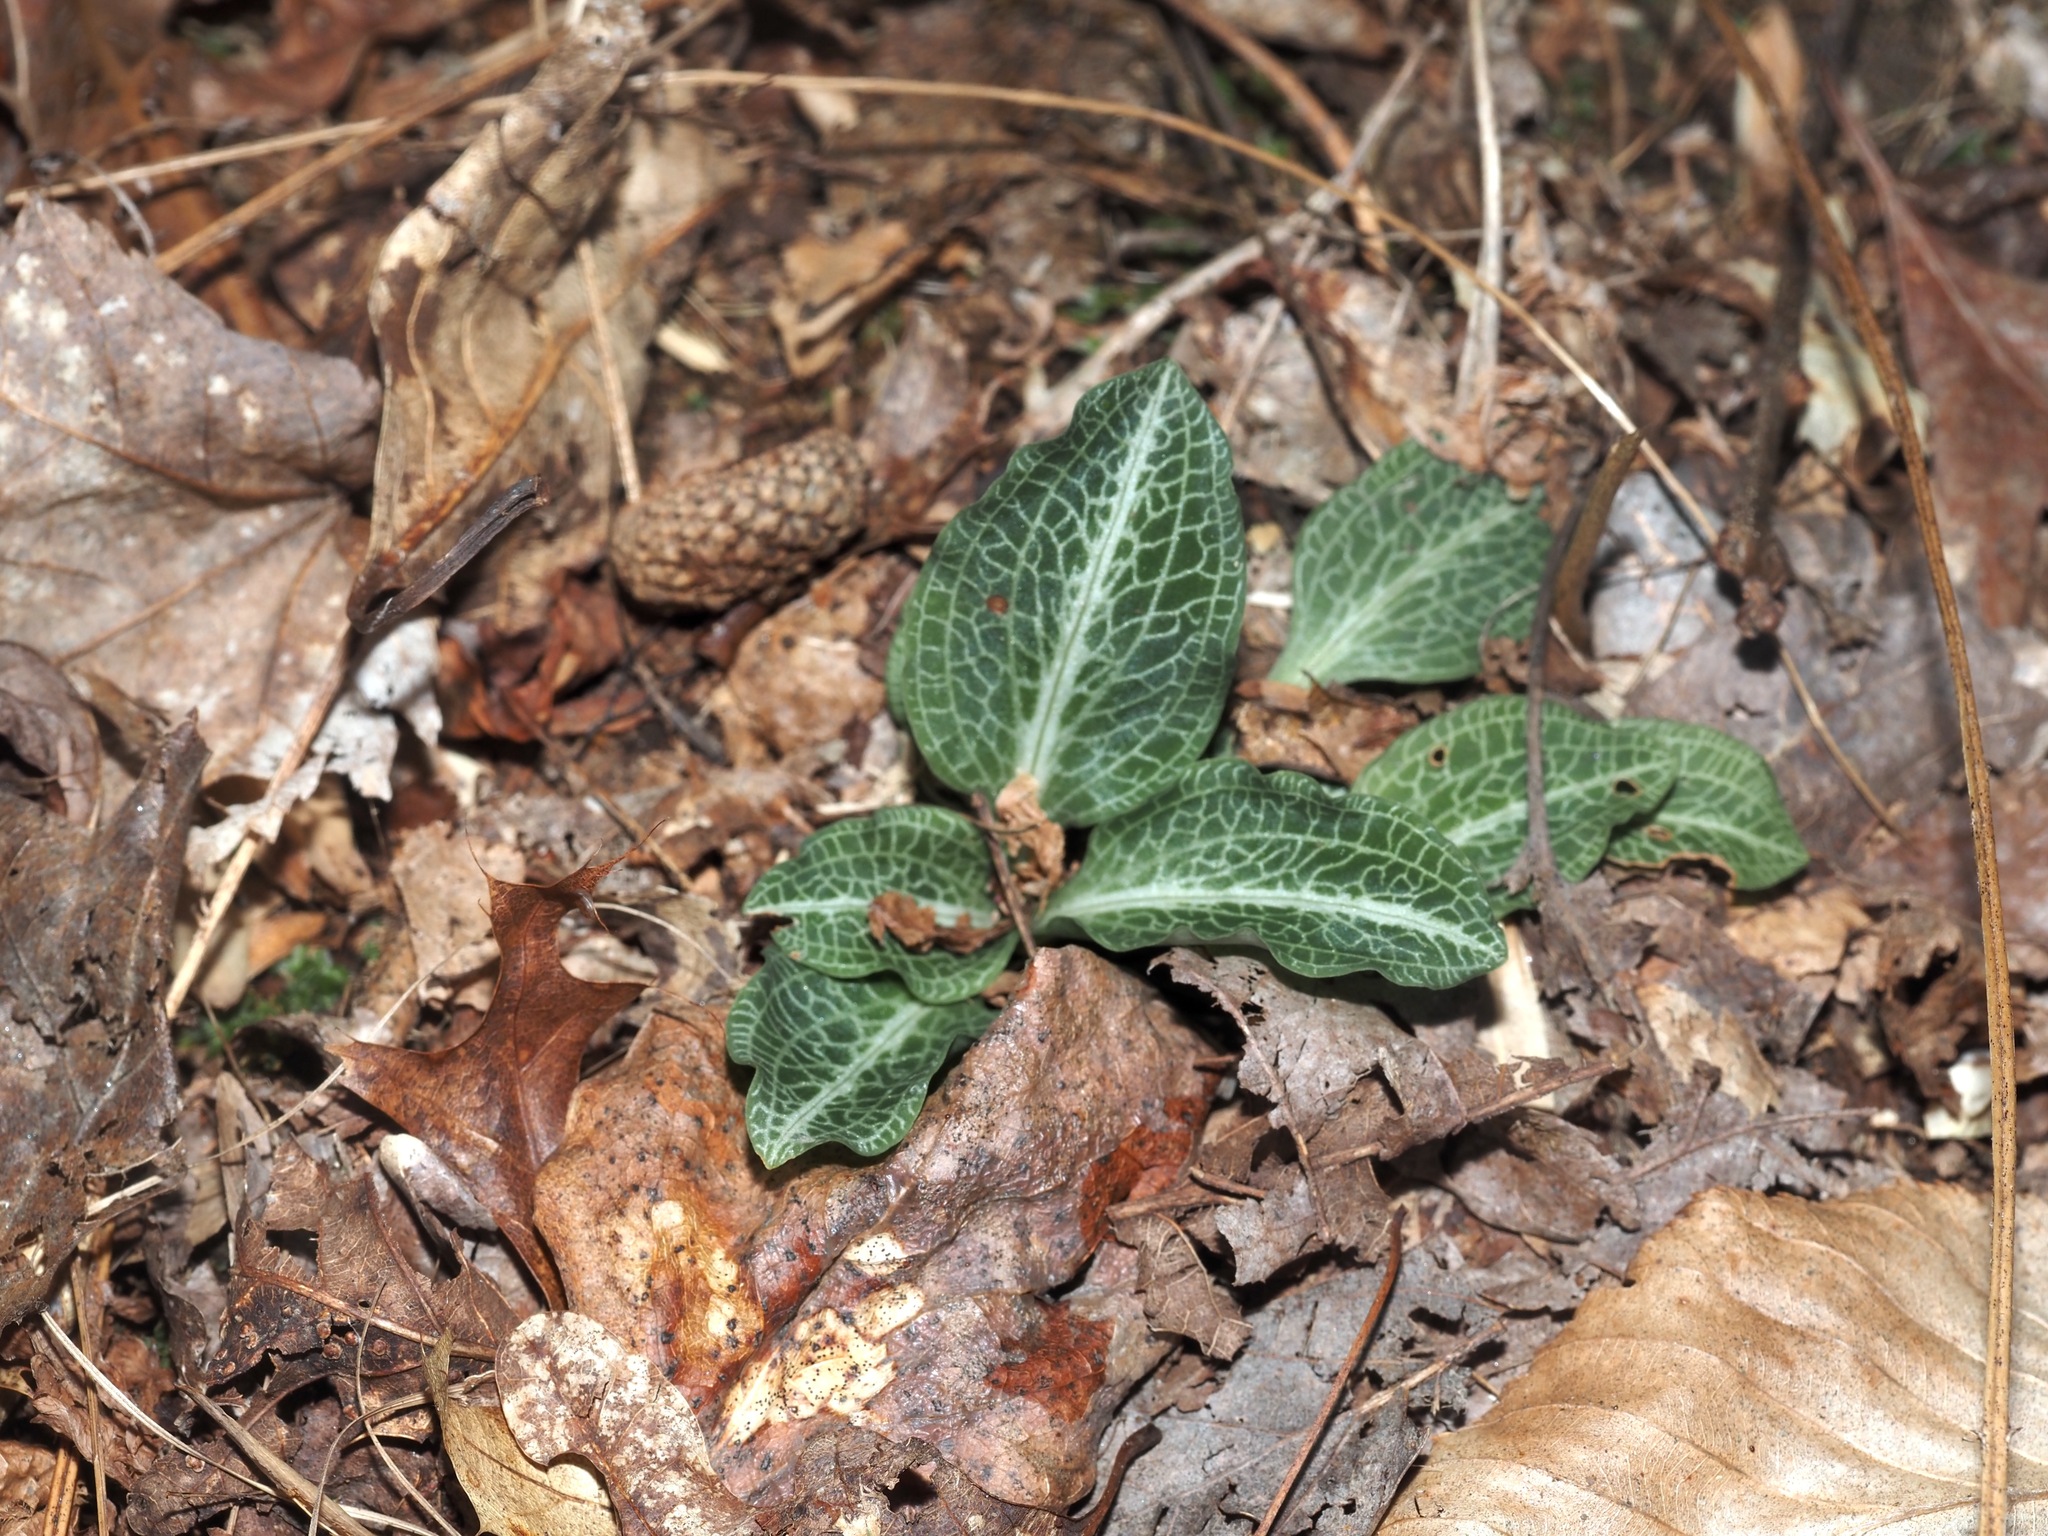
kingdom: Plantae
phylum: Tracheophyta
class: Liliopsida
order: Asparagales
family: Orchidaceae
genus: Goodyera
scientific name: Goodyera pubescens
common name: Downy rattlesnake-plantain
